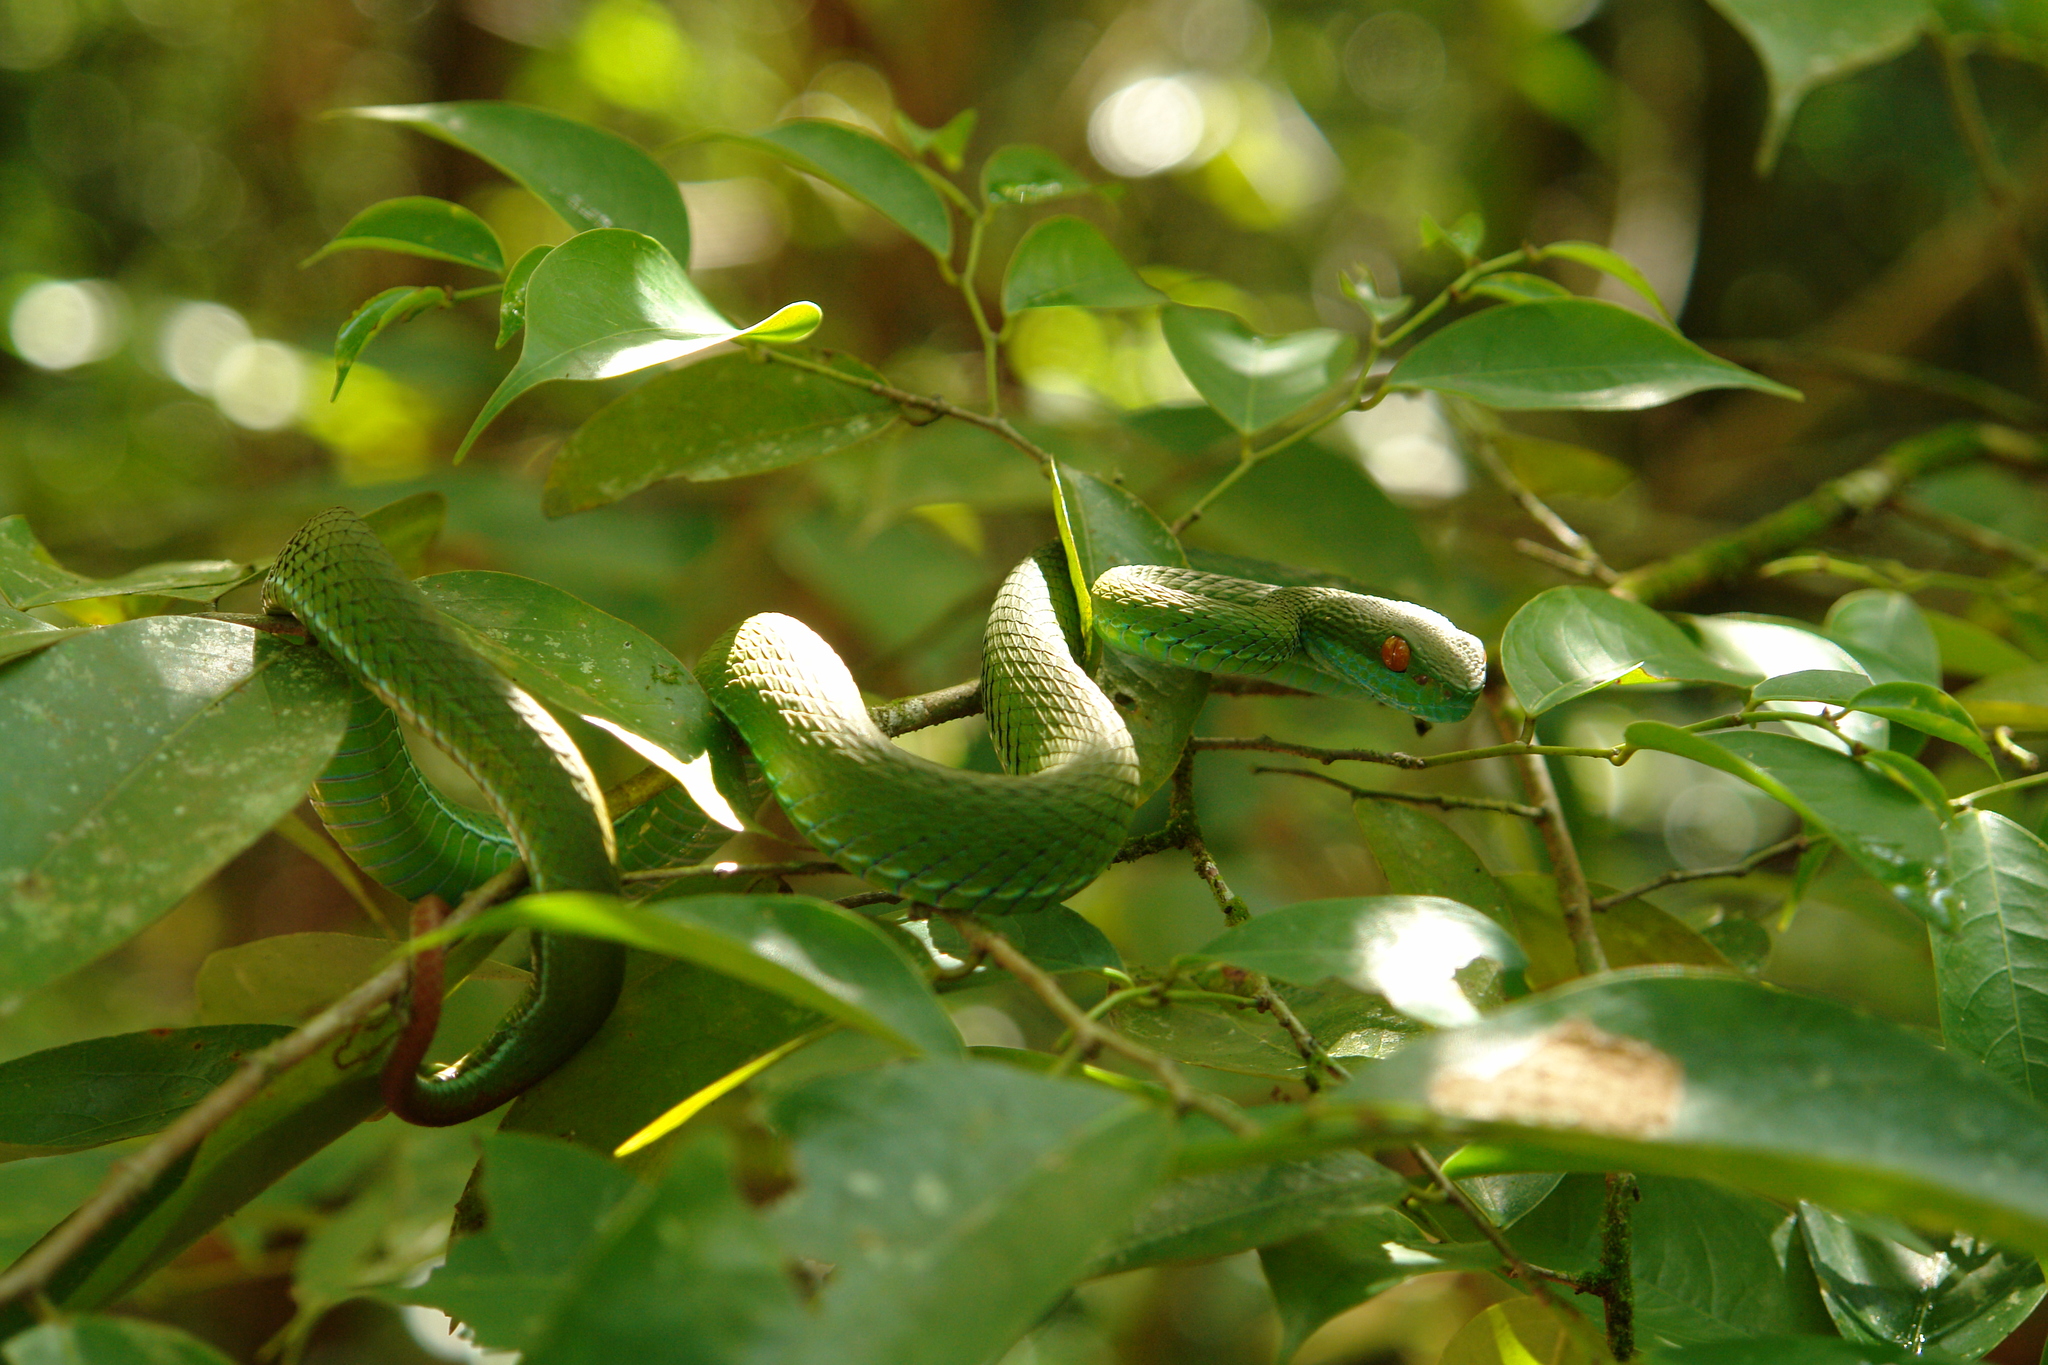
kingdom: Animalia
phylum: Chordata
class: Squamata
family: Viperidae
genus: Craspedocephalus
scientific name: Craspedocephalus rubeus
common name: Ruby-eyed green pitviper
